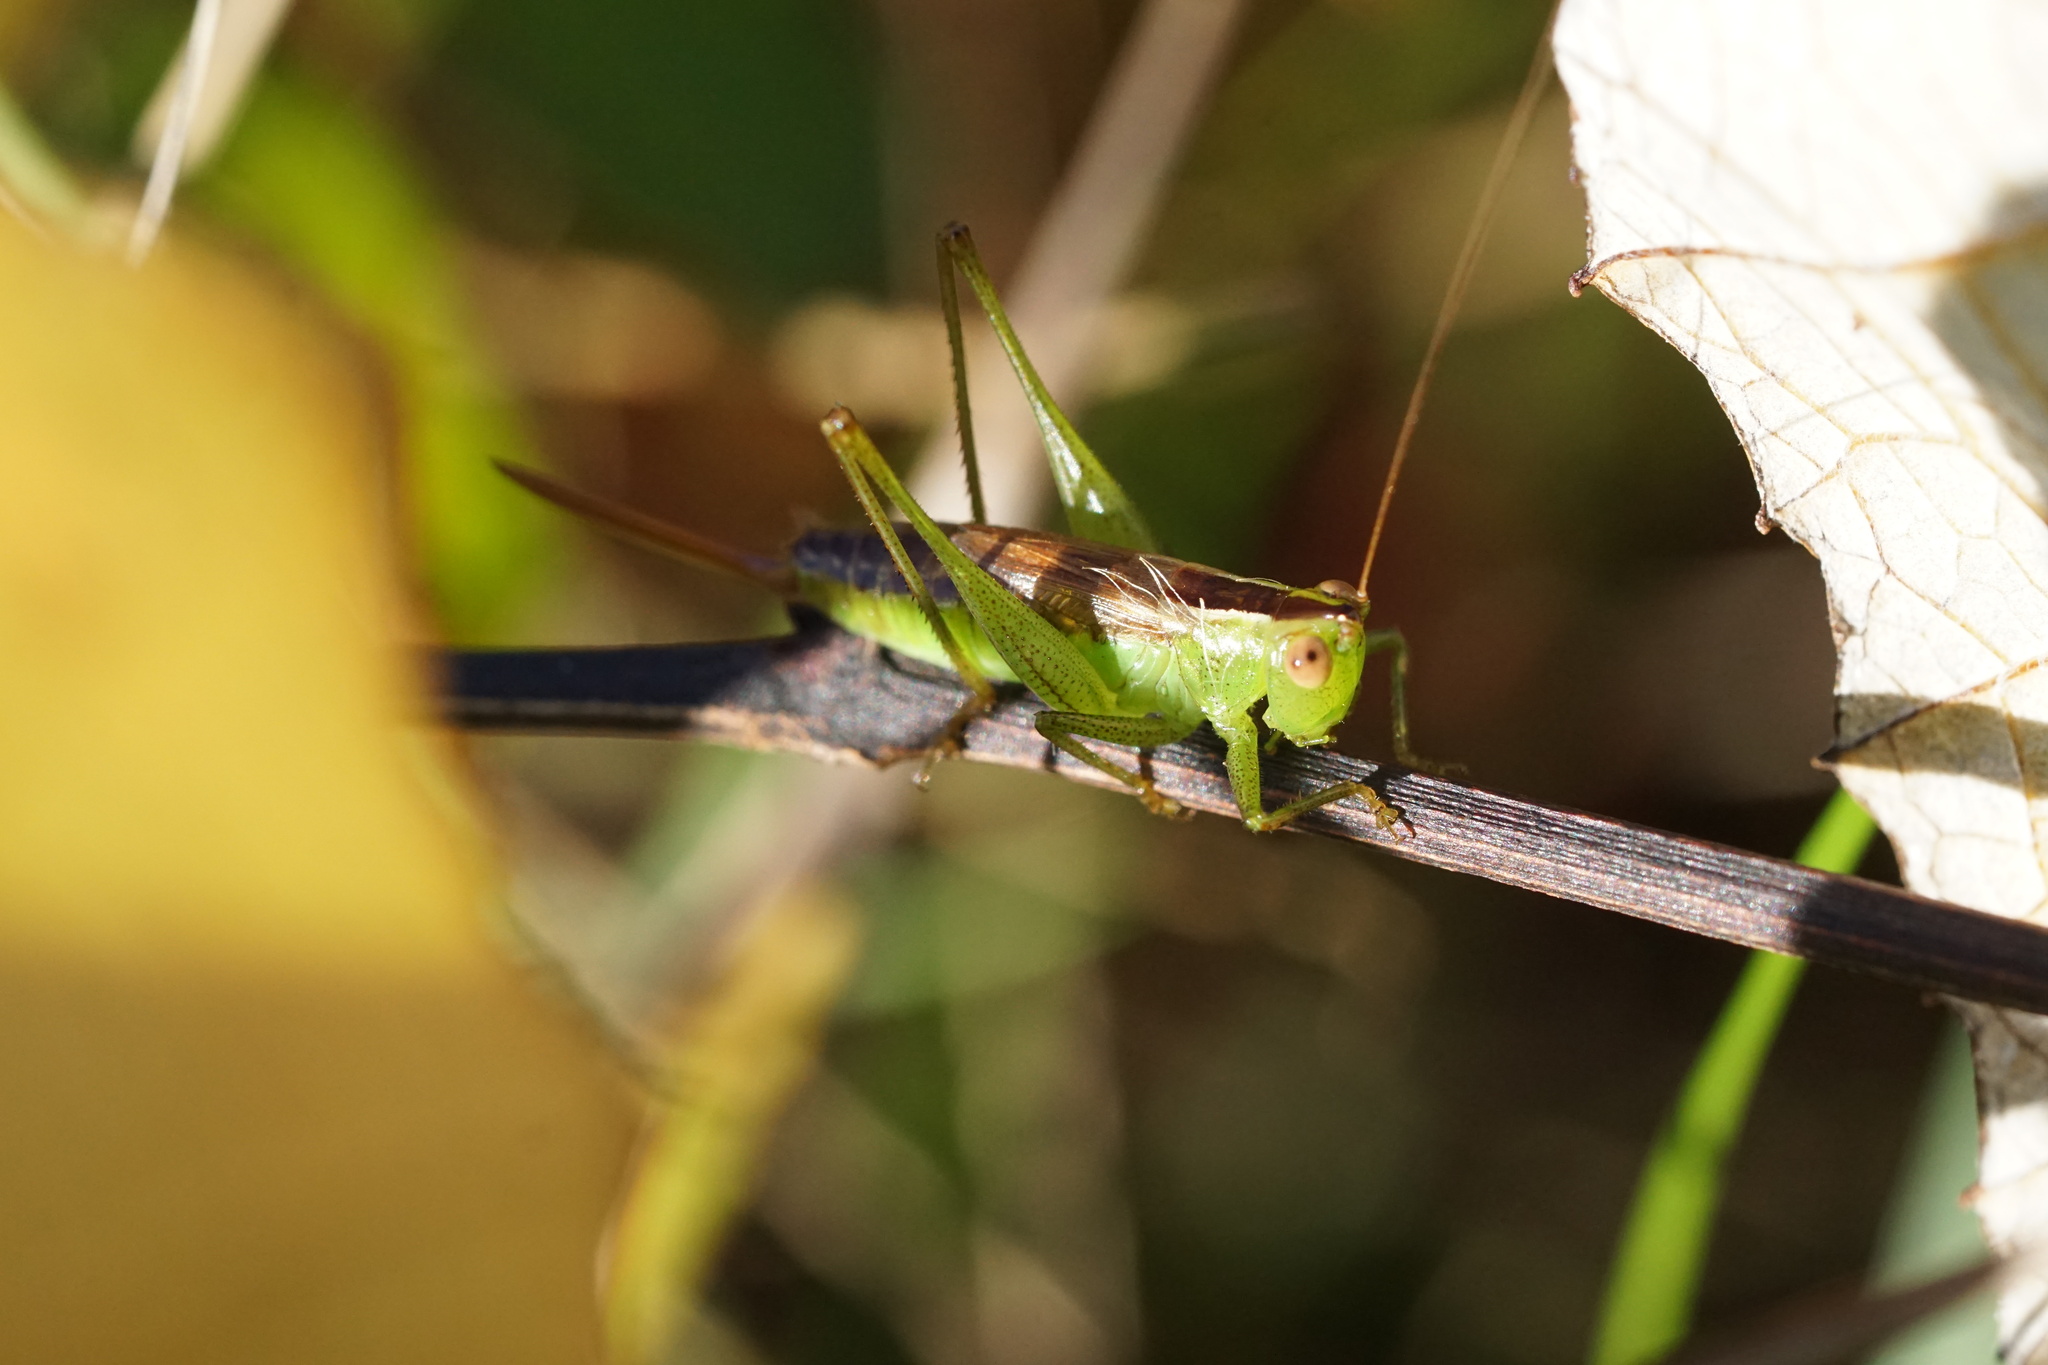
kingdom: Animalia
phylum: Arthropoda
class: Insecta
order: Orthoptera
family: Tettigoniidae
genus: Conocephalus
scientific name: Conocephalus brevipennis
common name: Short-winged meadow katydid
